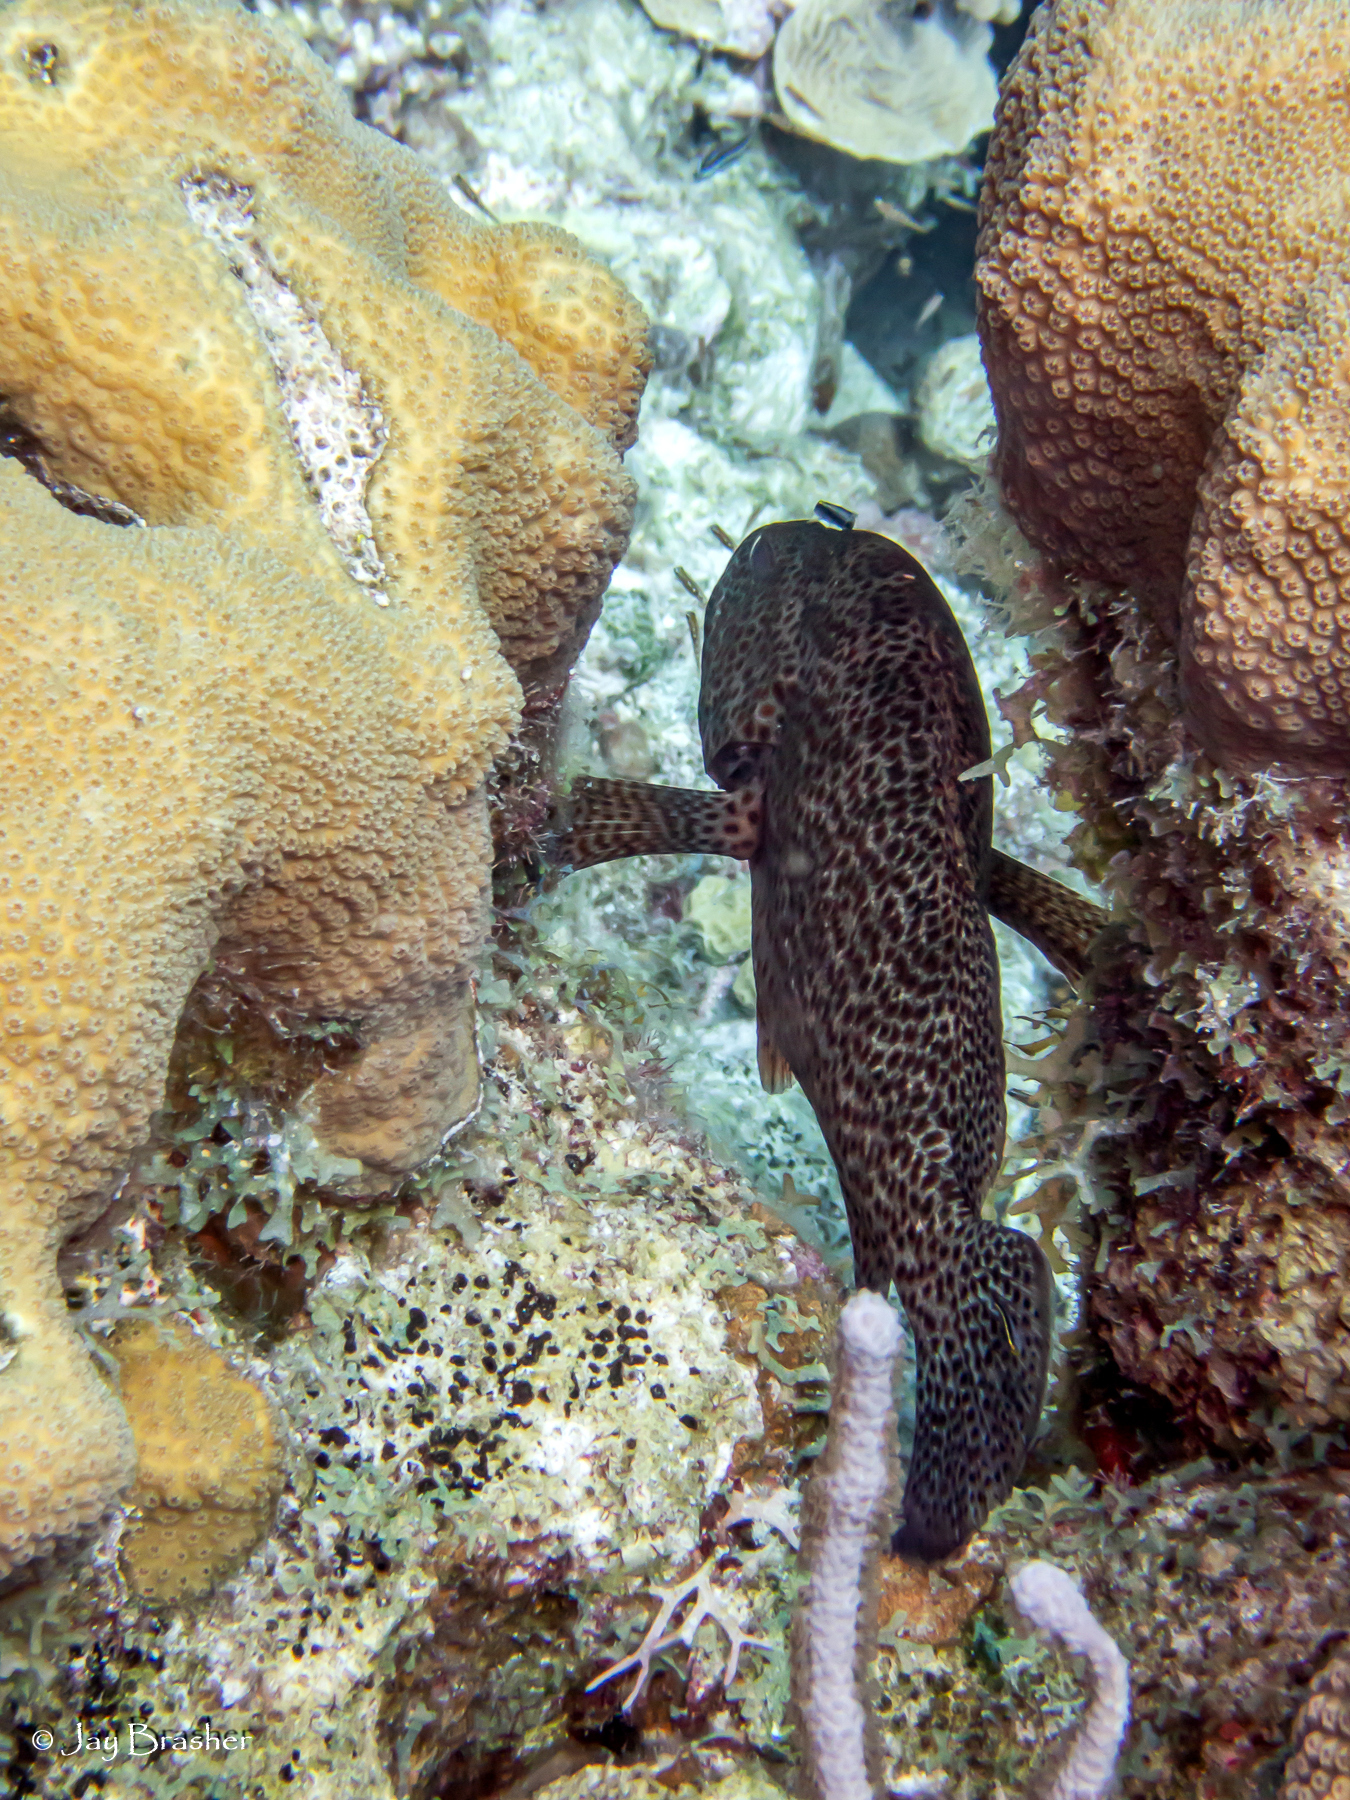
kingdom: Animalia
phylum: Porifera
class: Demospongiae
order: Clionaida
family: Clionaidae
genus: Cliona
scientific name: Cliona aprica
